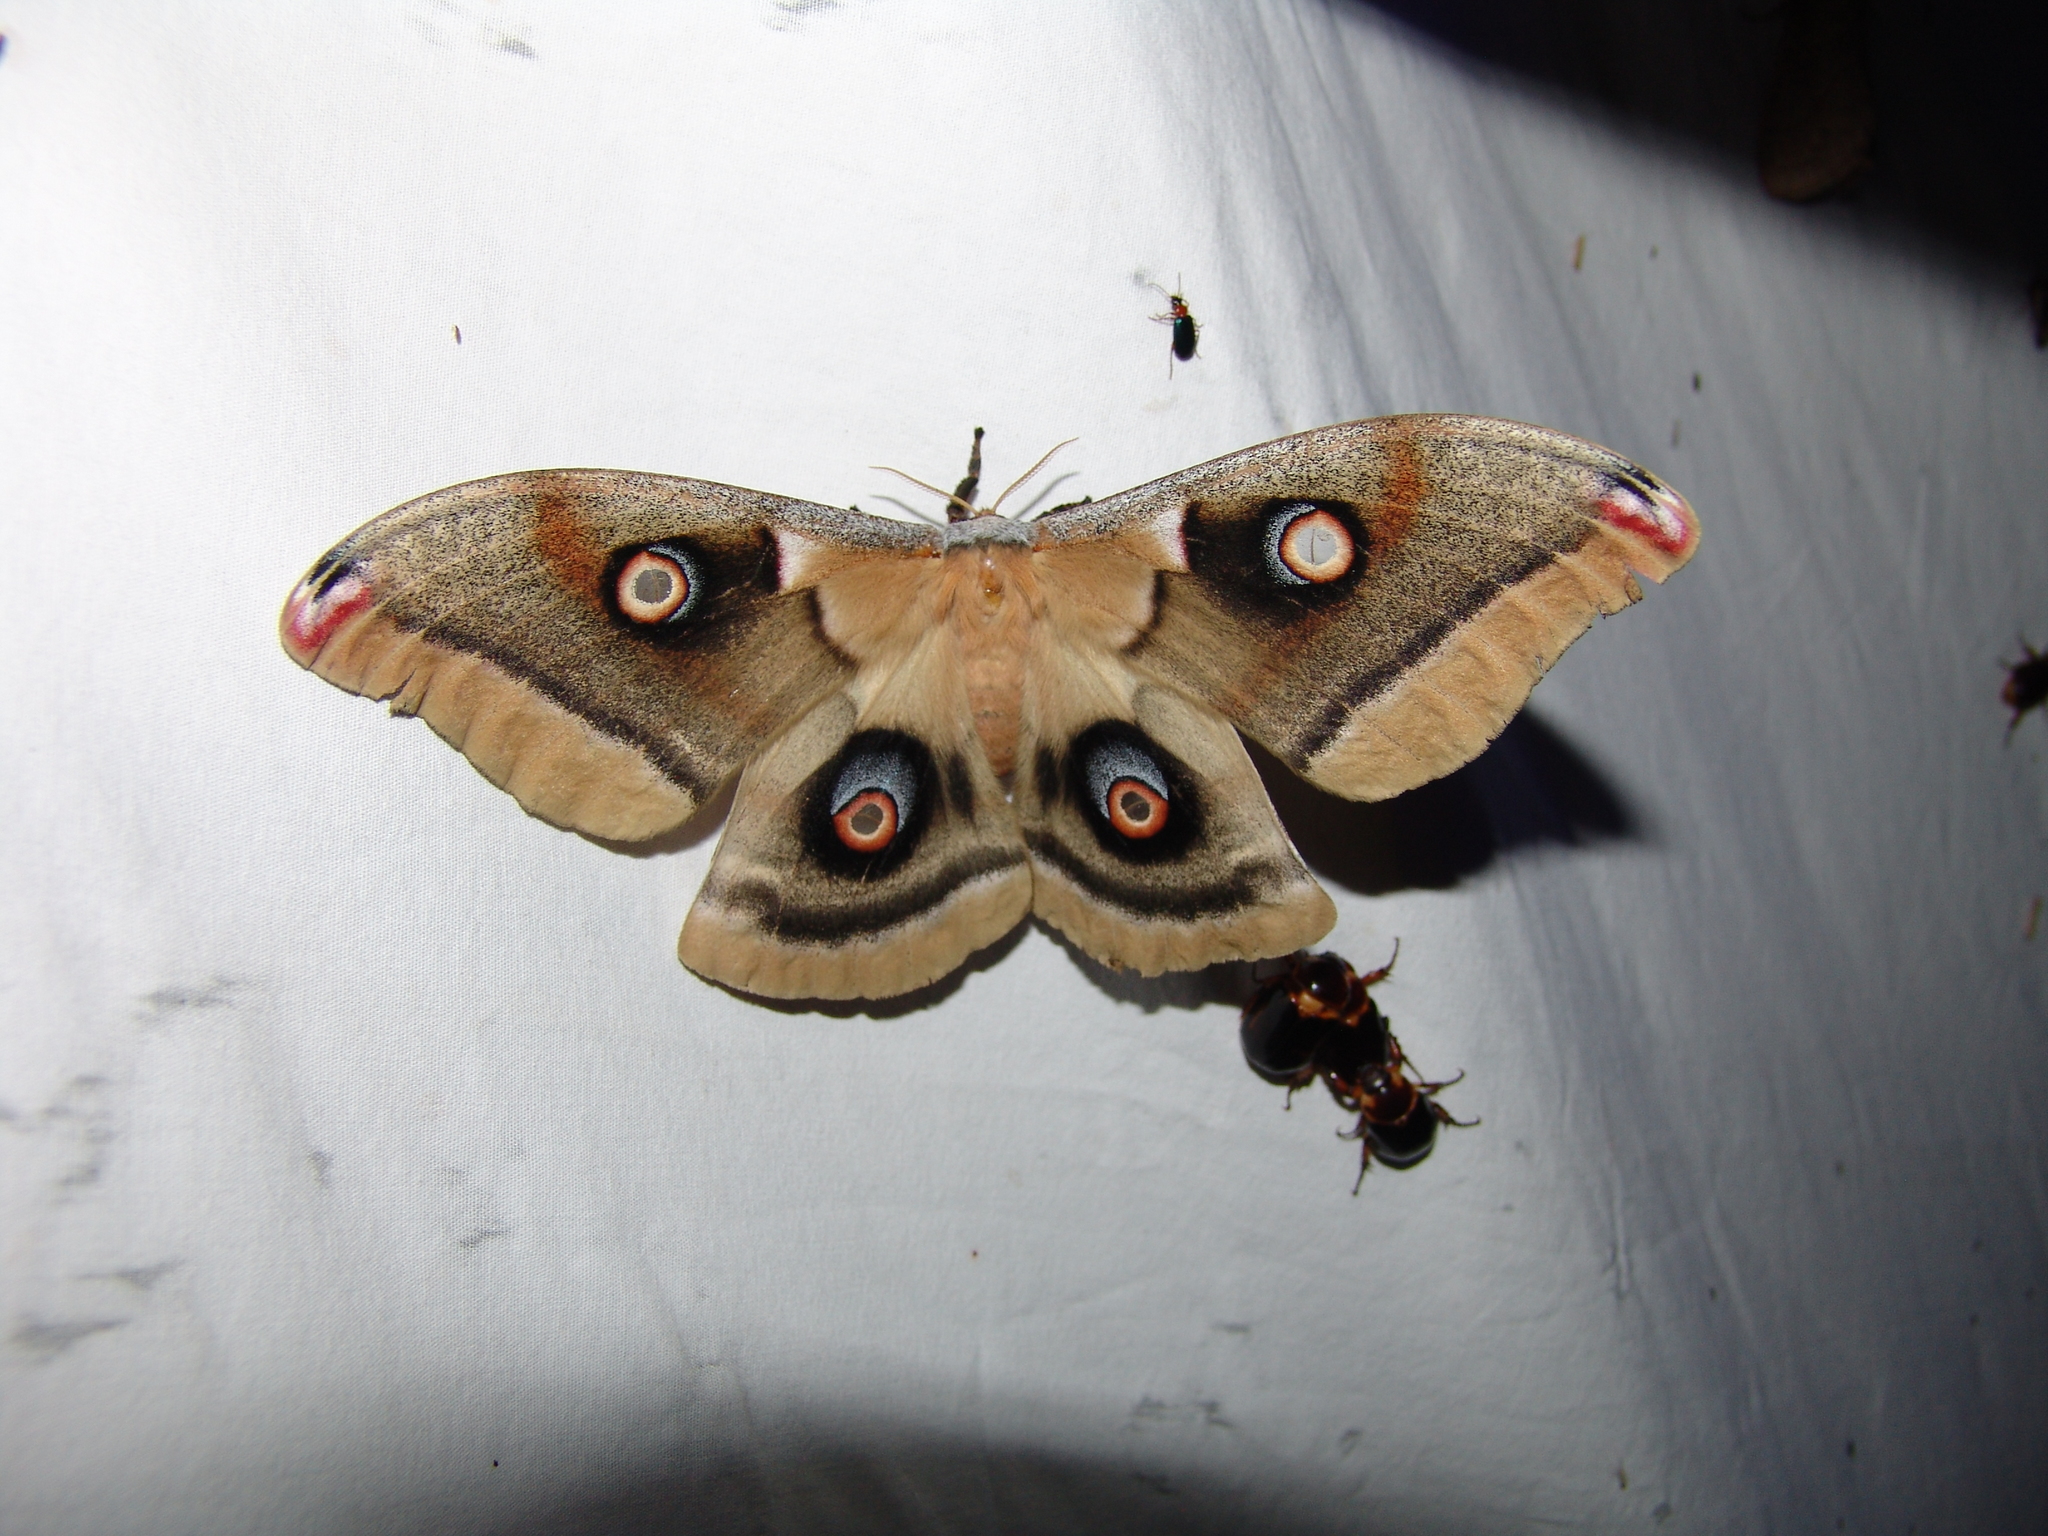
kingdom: Animalia
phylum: Arthropoda
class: Insecta
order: Lepidoptera
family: Saturniidae
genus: Antheraea
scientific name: Antheraea oculea
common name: Arizona polyphemus moth
